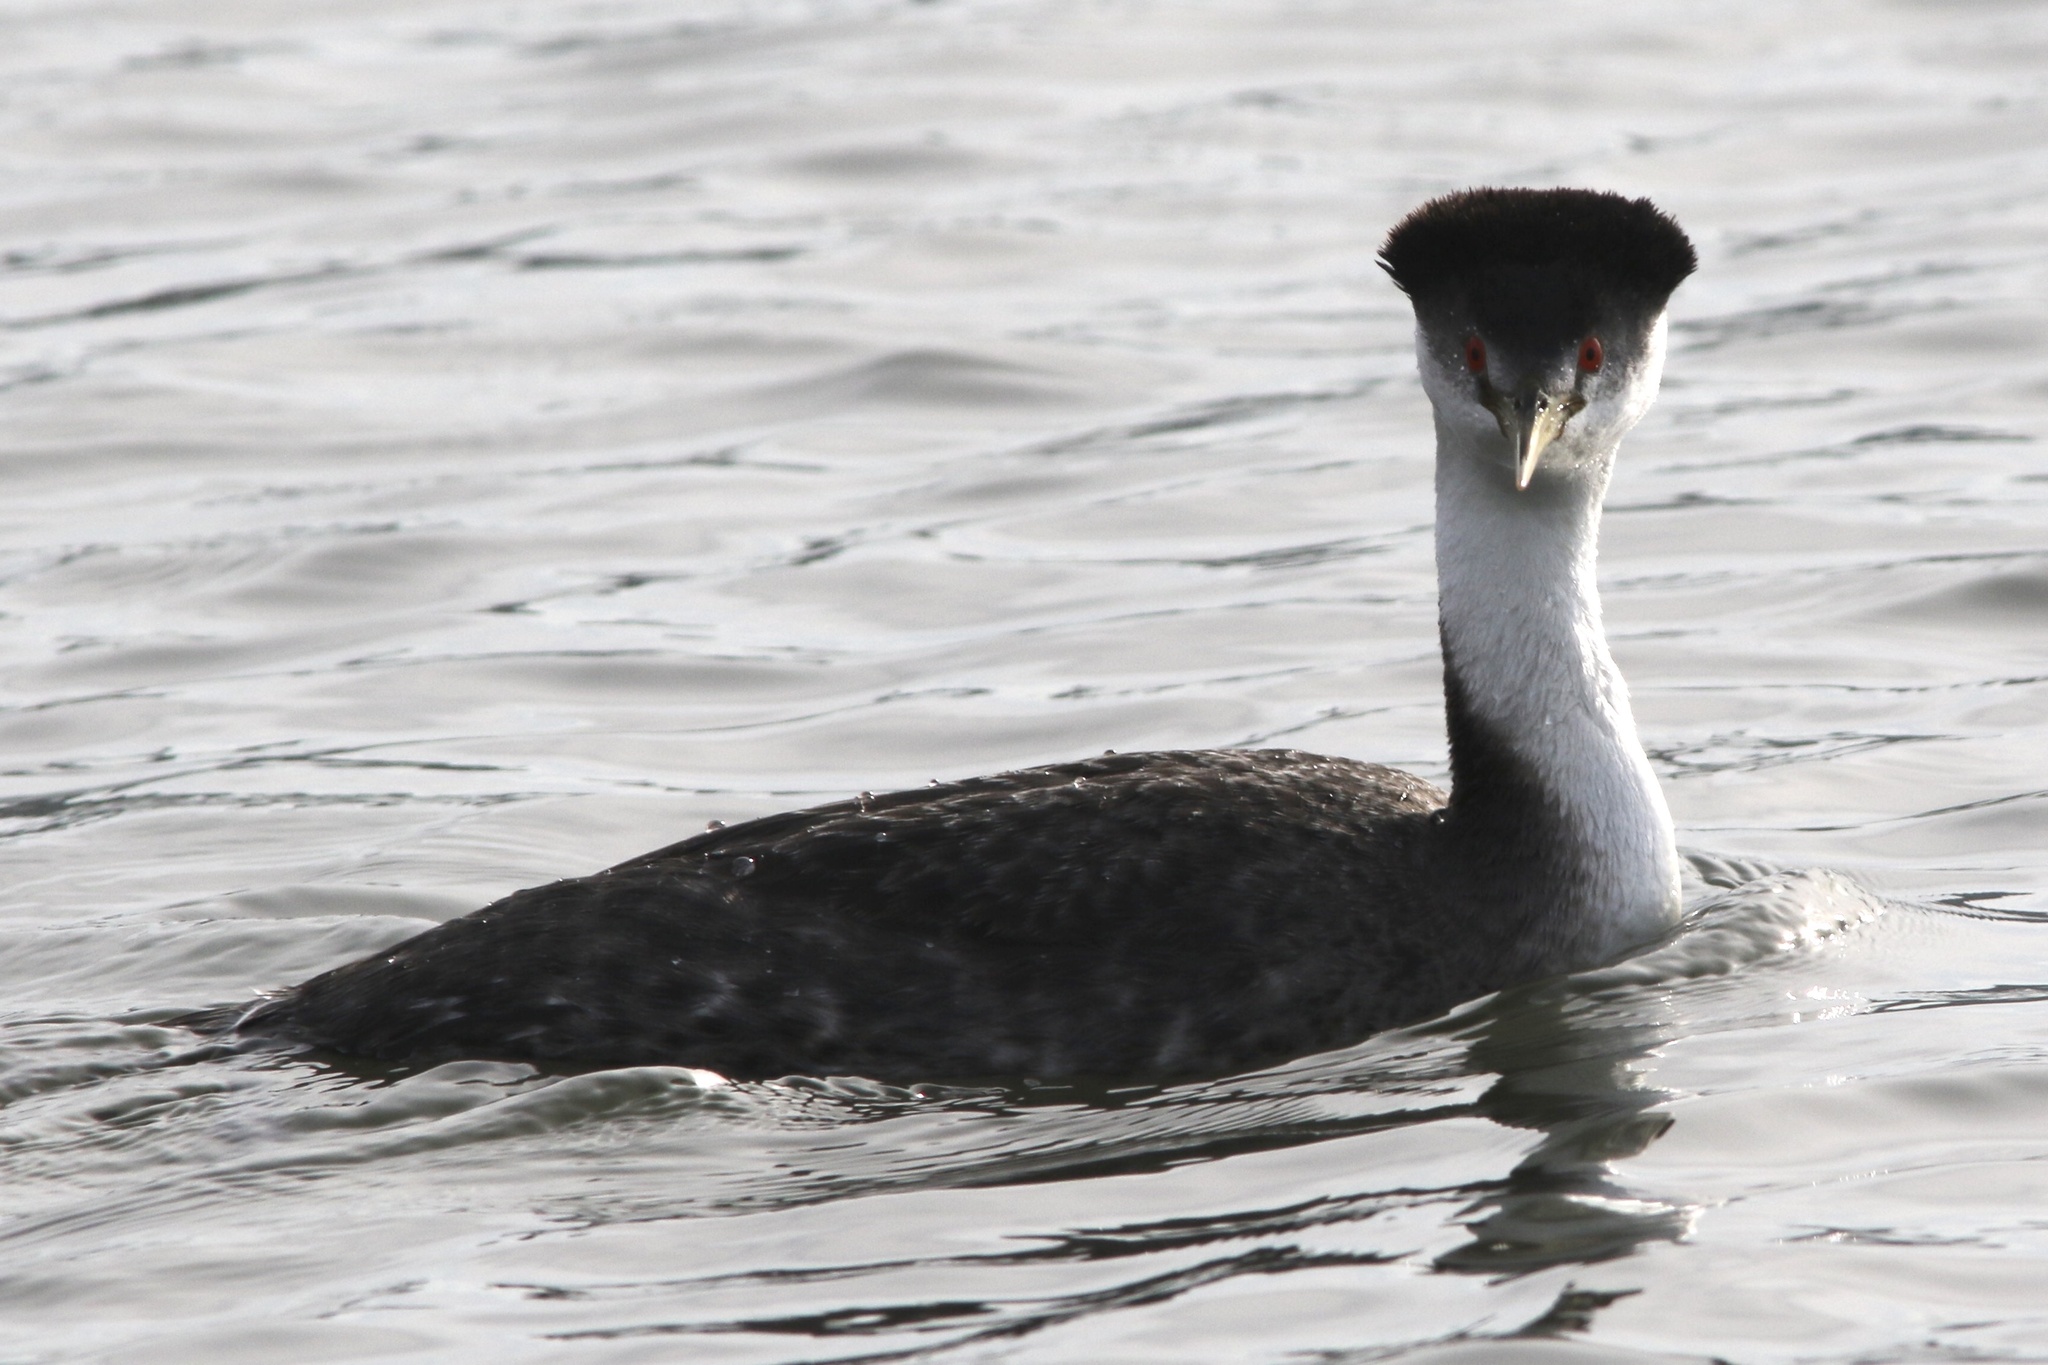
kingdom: Animalia
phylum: Chordata
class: Aves
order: Podicipediformes
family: Podicipedidae
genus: Aechmophorus
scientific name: Aechmophorus occidentalis
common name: Western grebe
